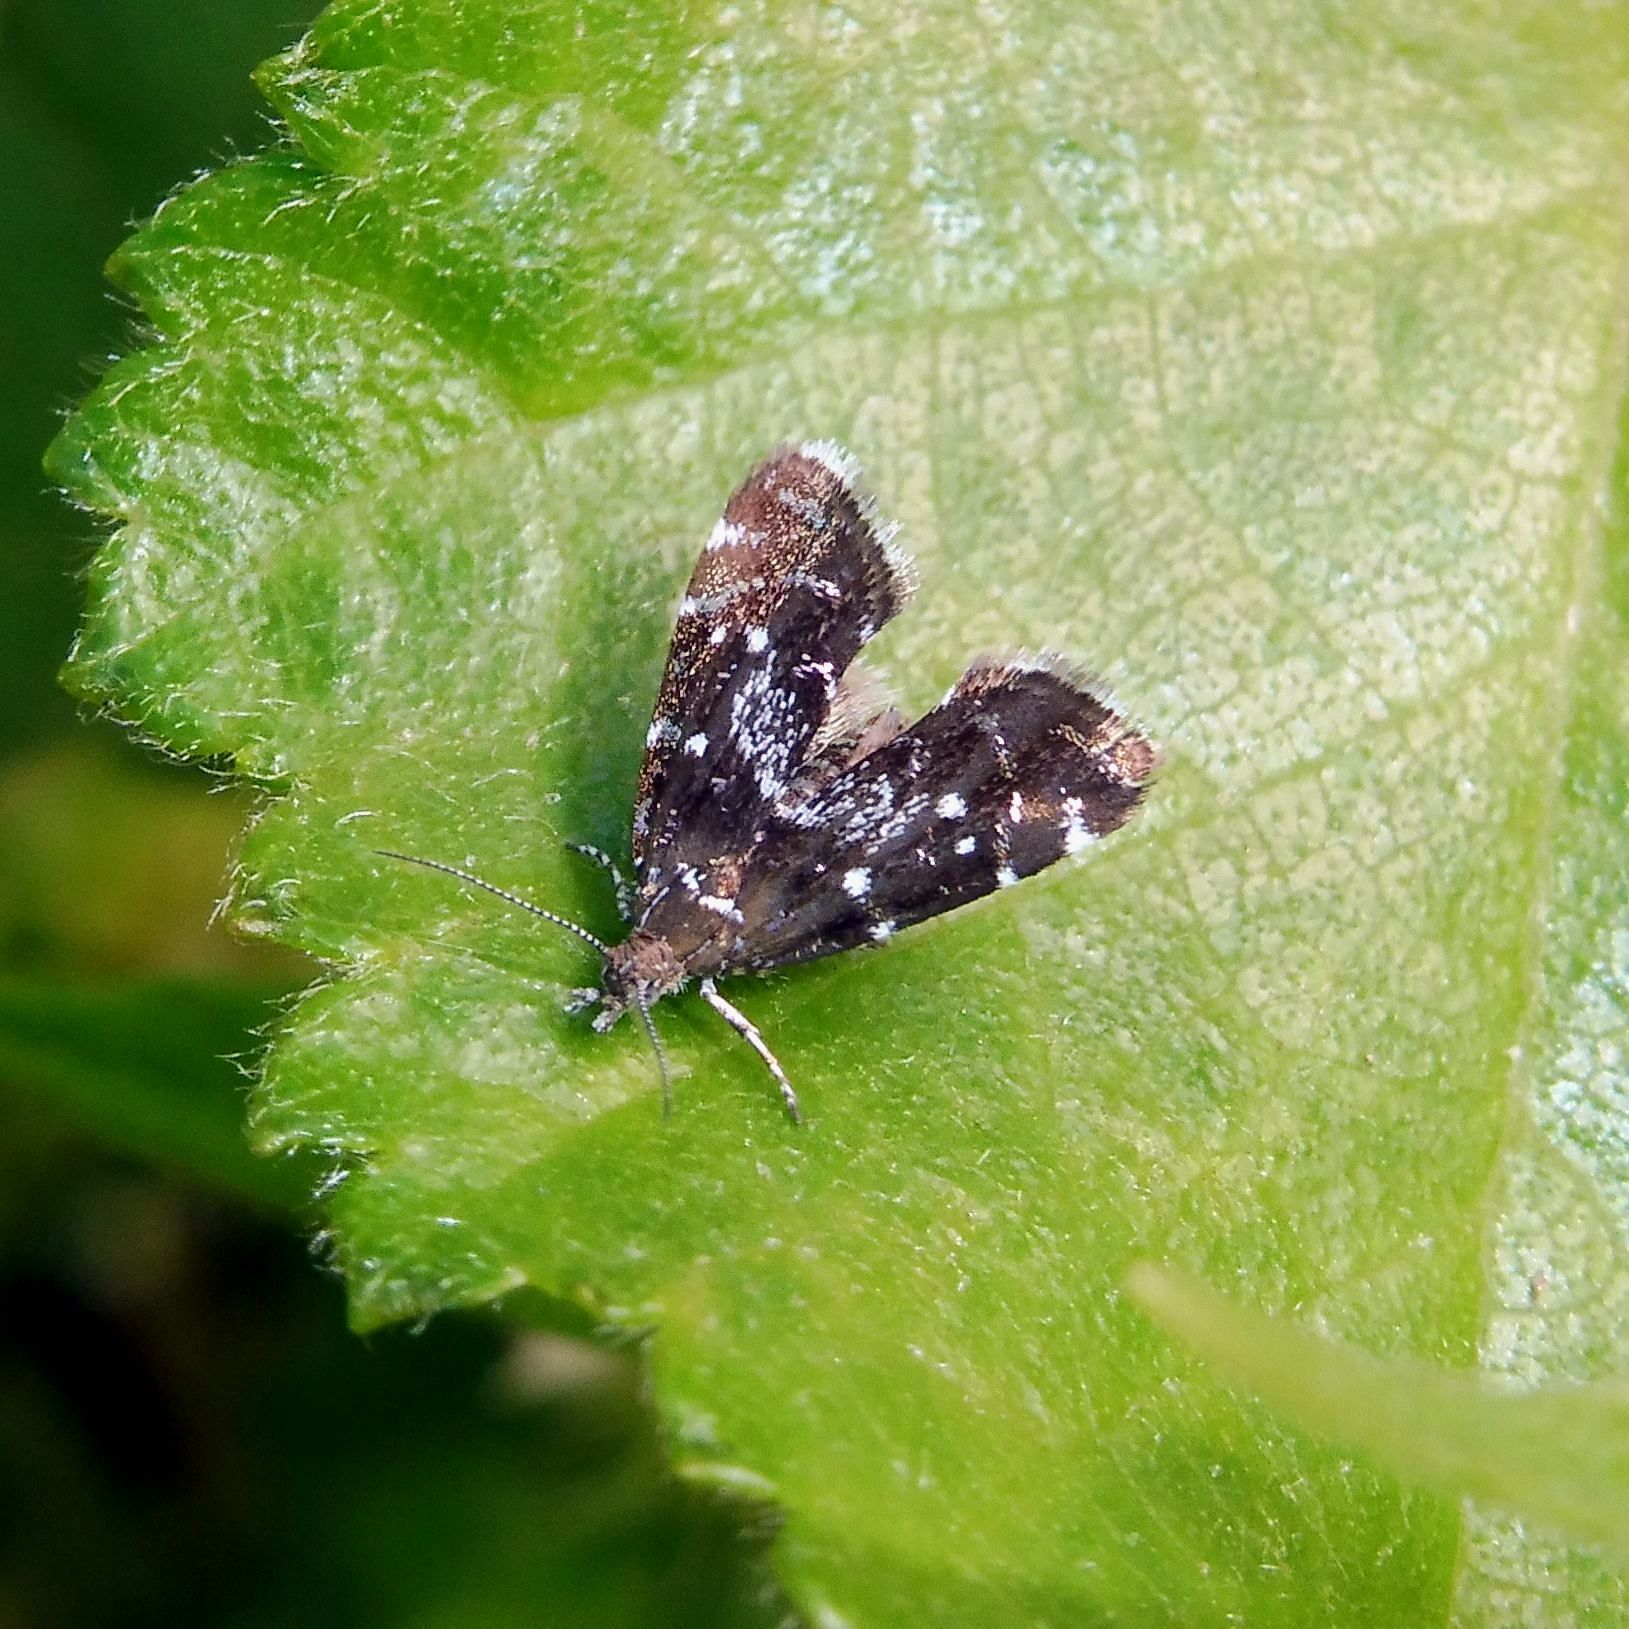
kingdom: Animalia
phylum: Arthropoda
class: Insecta
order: Lepidoptera
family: Choreutidae
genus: Prochoreutis
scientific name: Prochoreutis myllerana
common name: Small metal-mark
